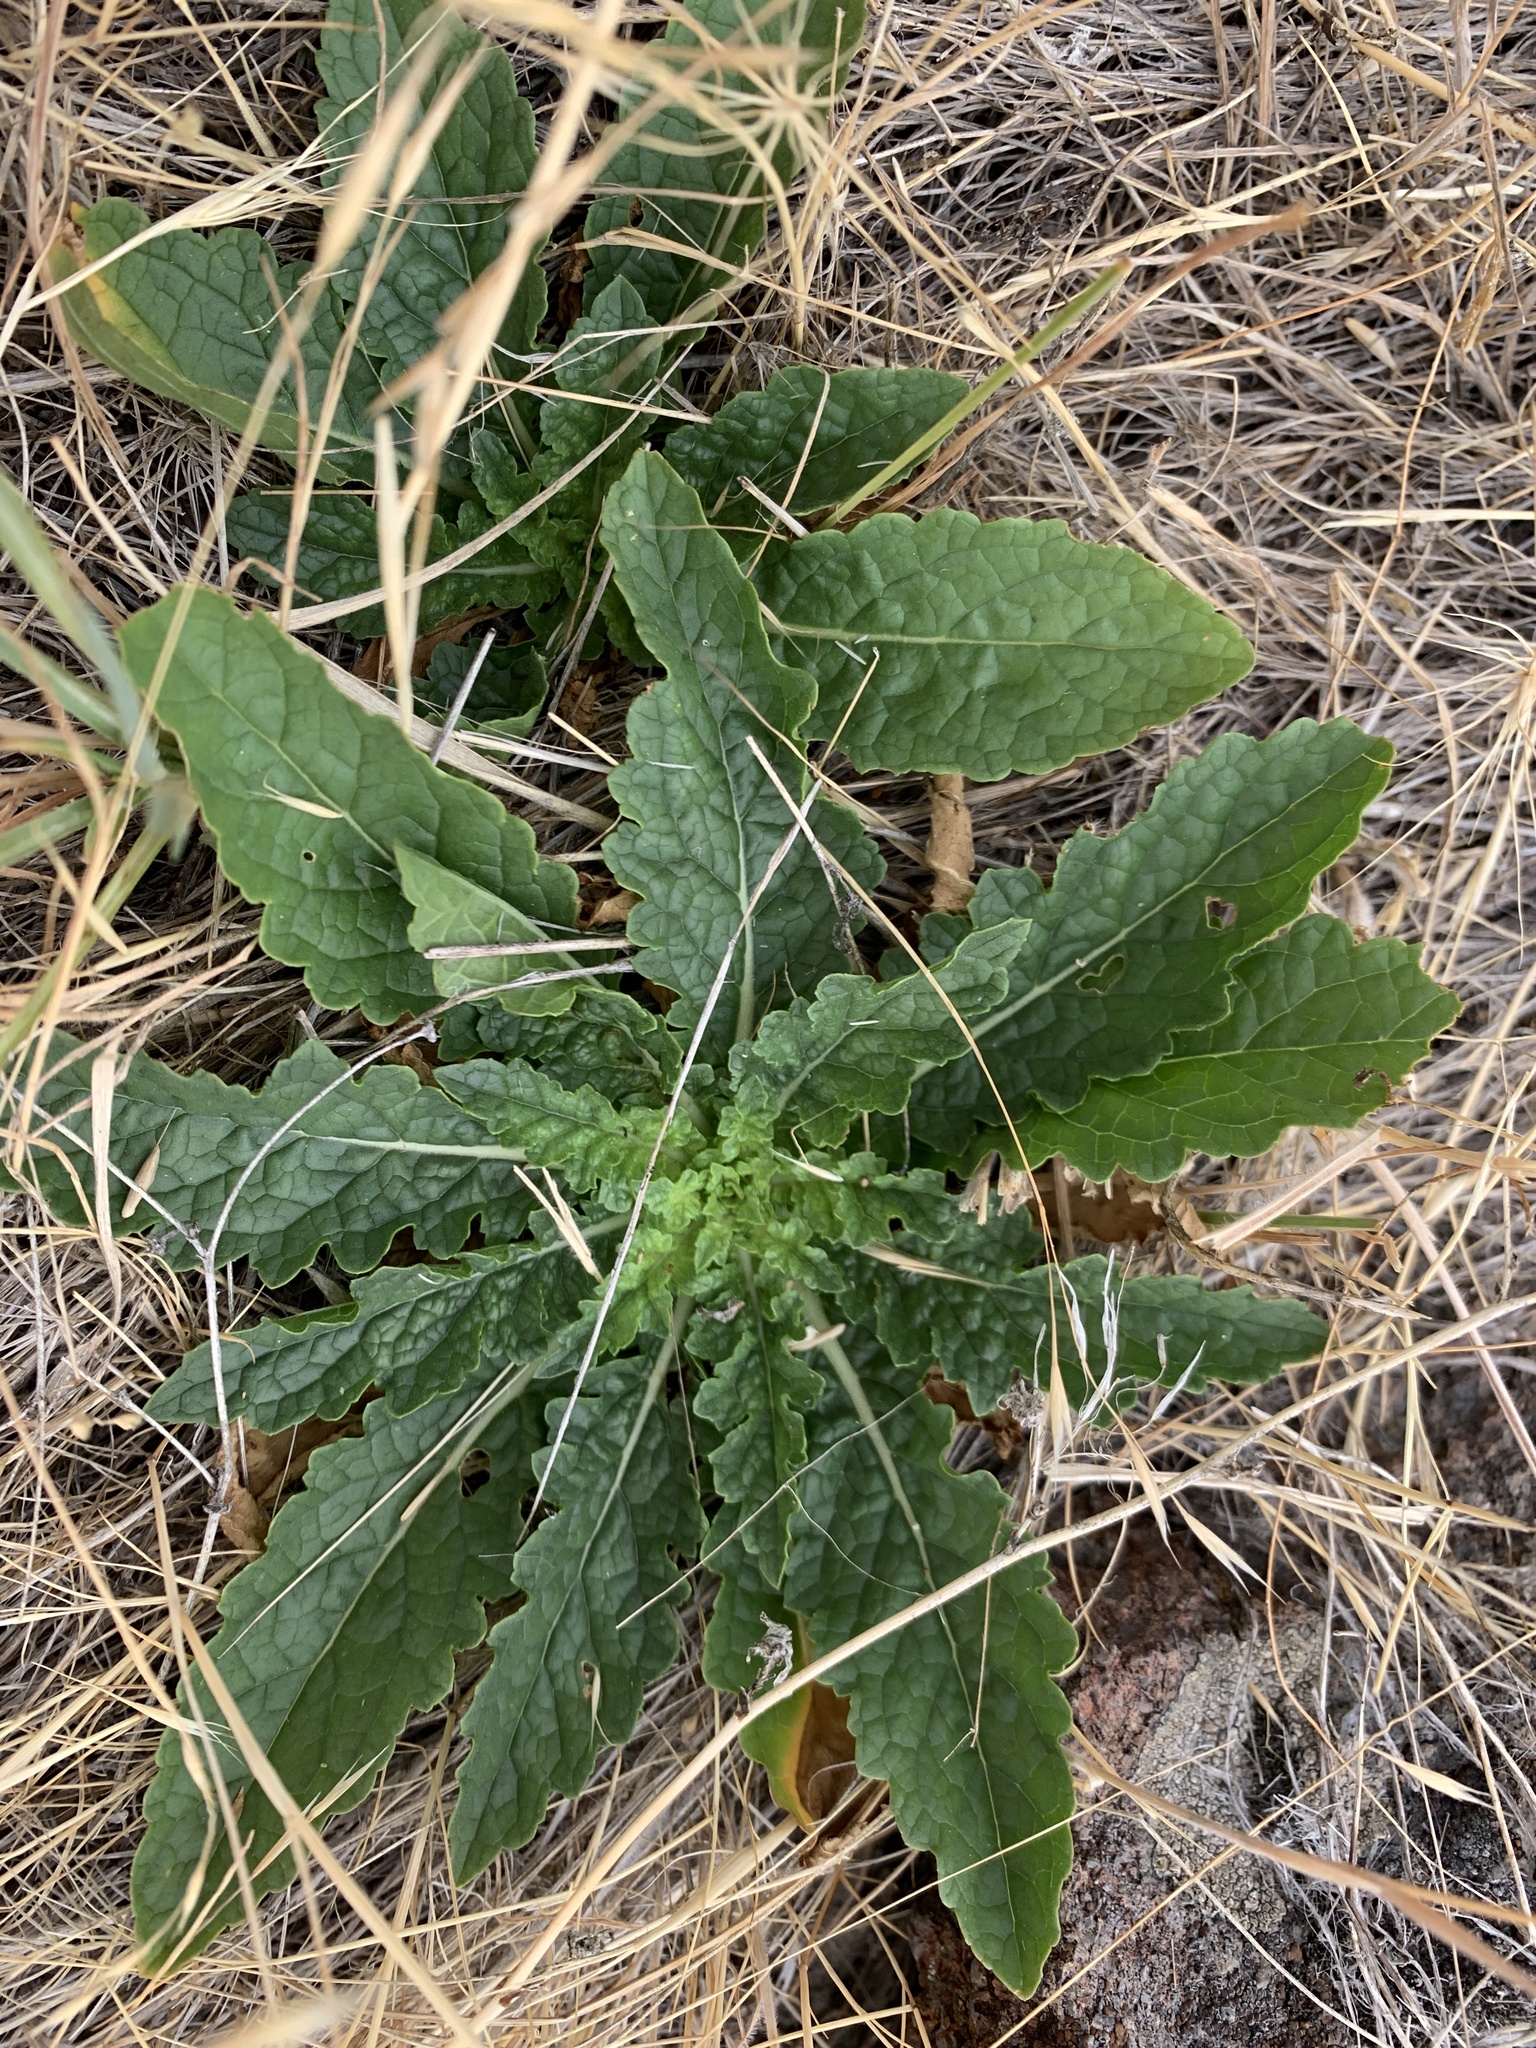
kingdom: Plantae
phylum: Tracheophyta
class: Magnoliopsida
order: Lamiales
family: Scrophulariaceae
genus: Verbascum
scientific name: Verbascum blattaria
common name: Moth mullein
